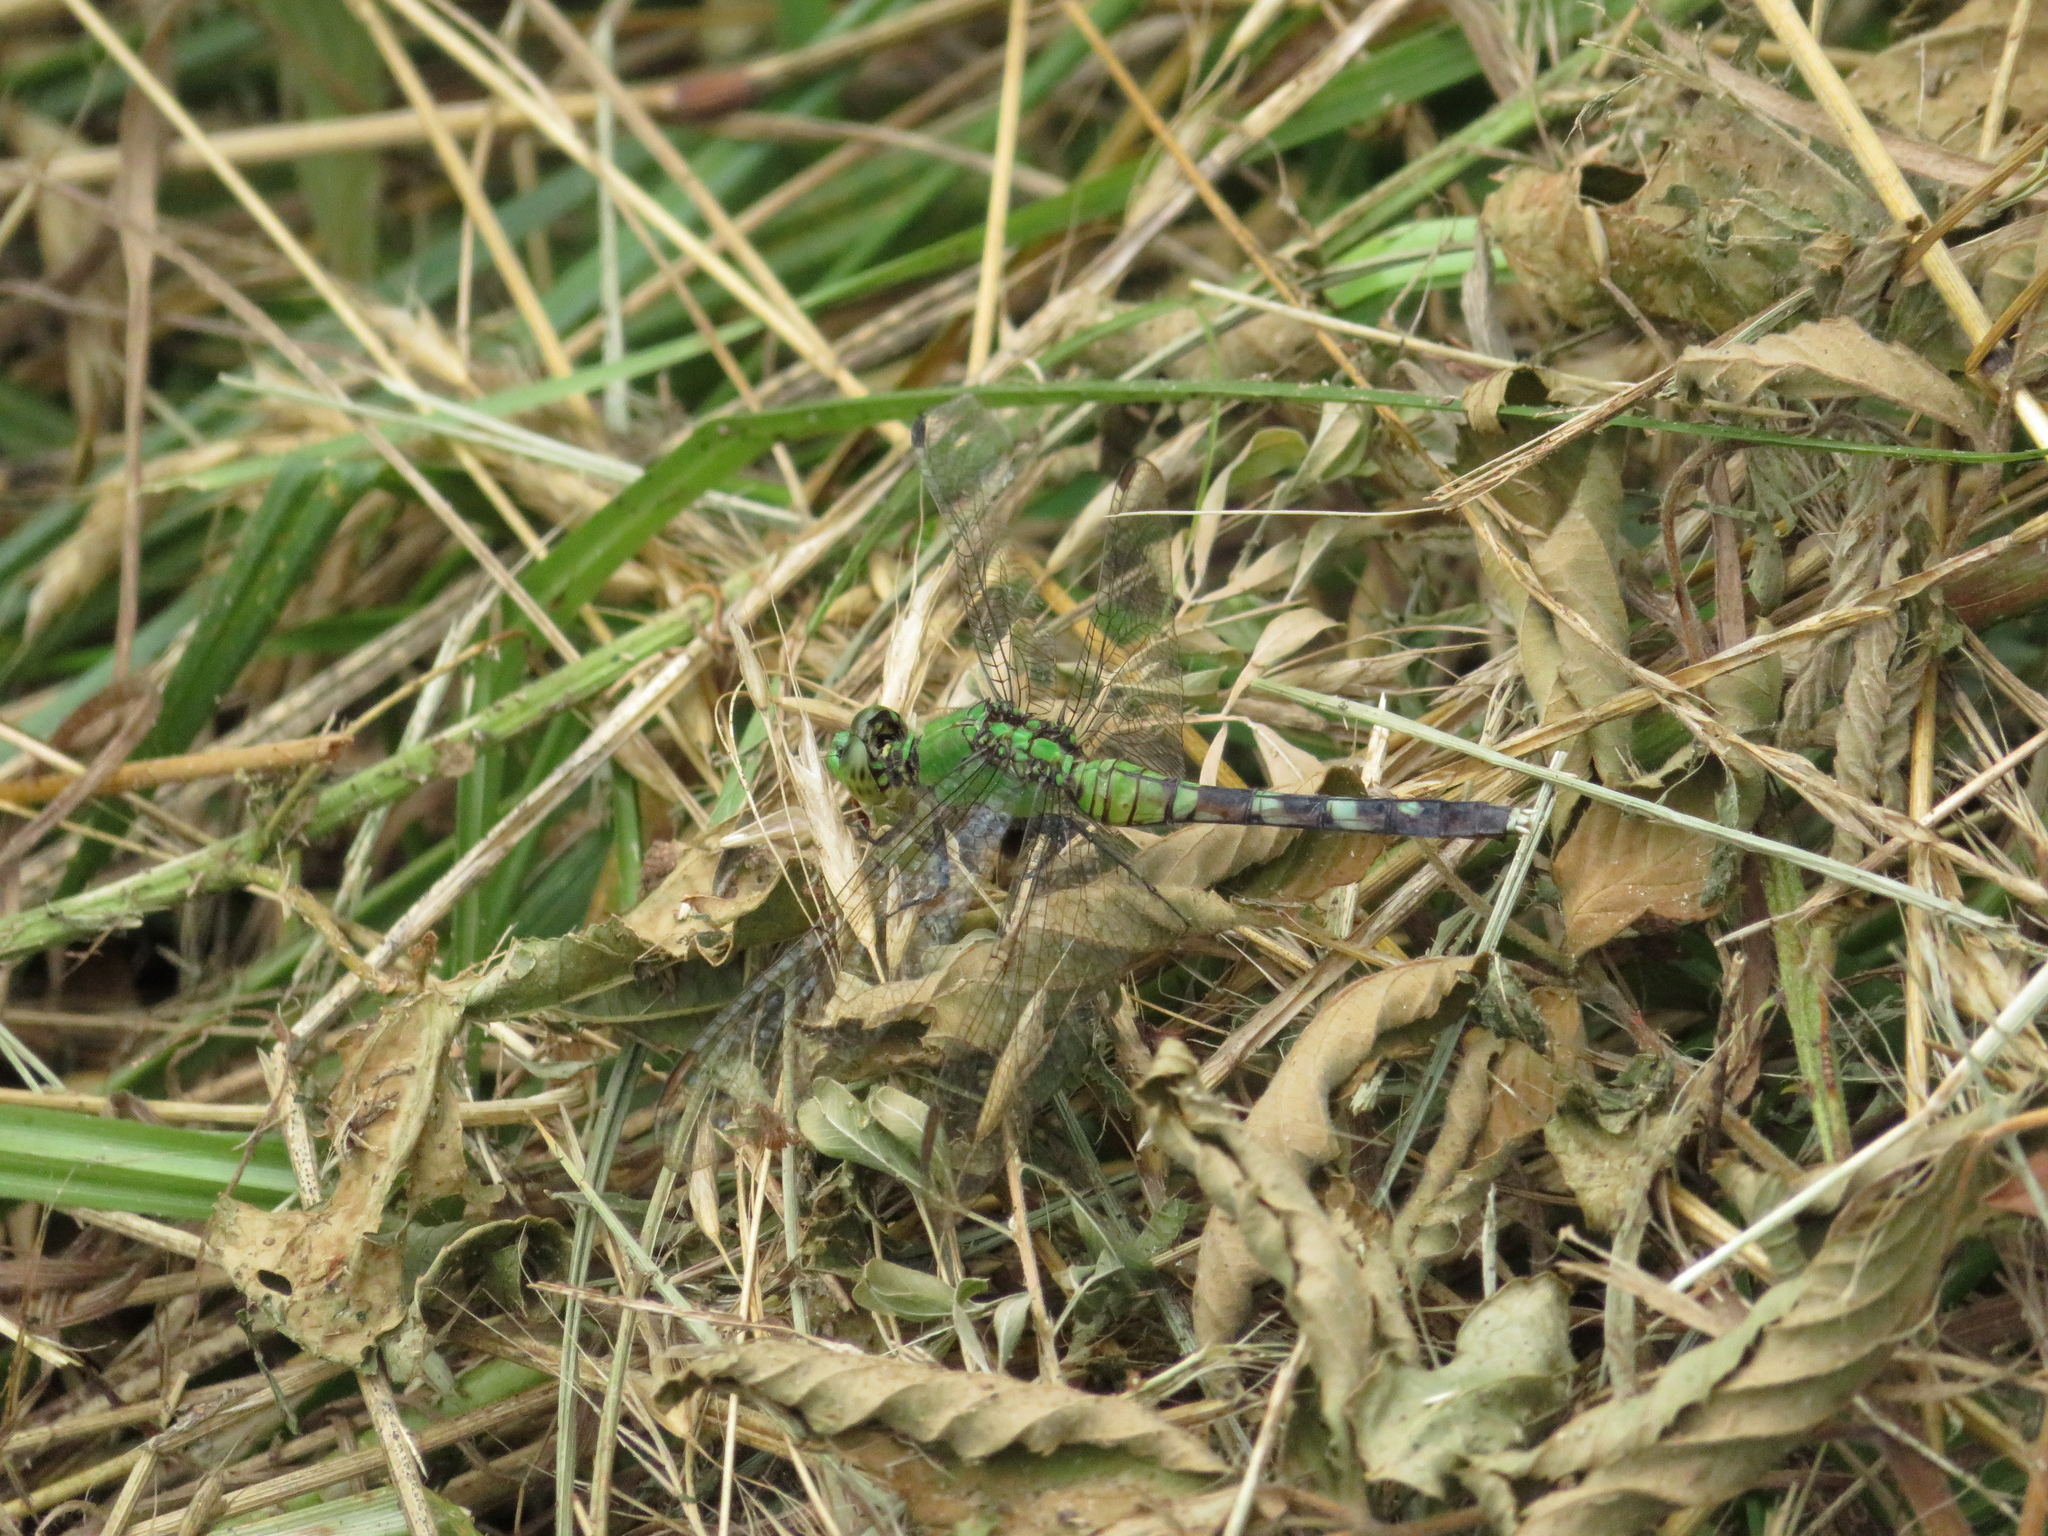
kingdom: Animalia
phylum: Arthropoda
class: Insecta
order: Odonata
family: Libellulidae
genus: Erythemis
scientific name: Erythemis simplicicollis
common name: Eastern pondhawk
